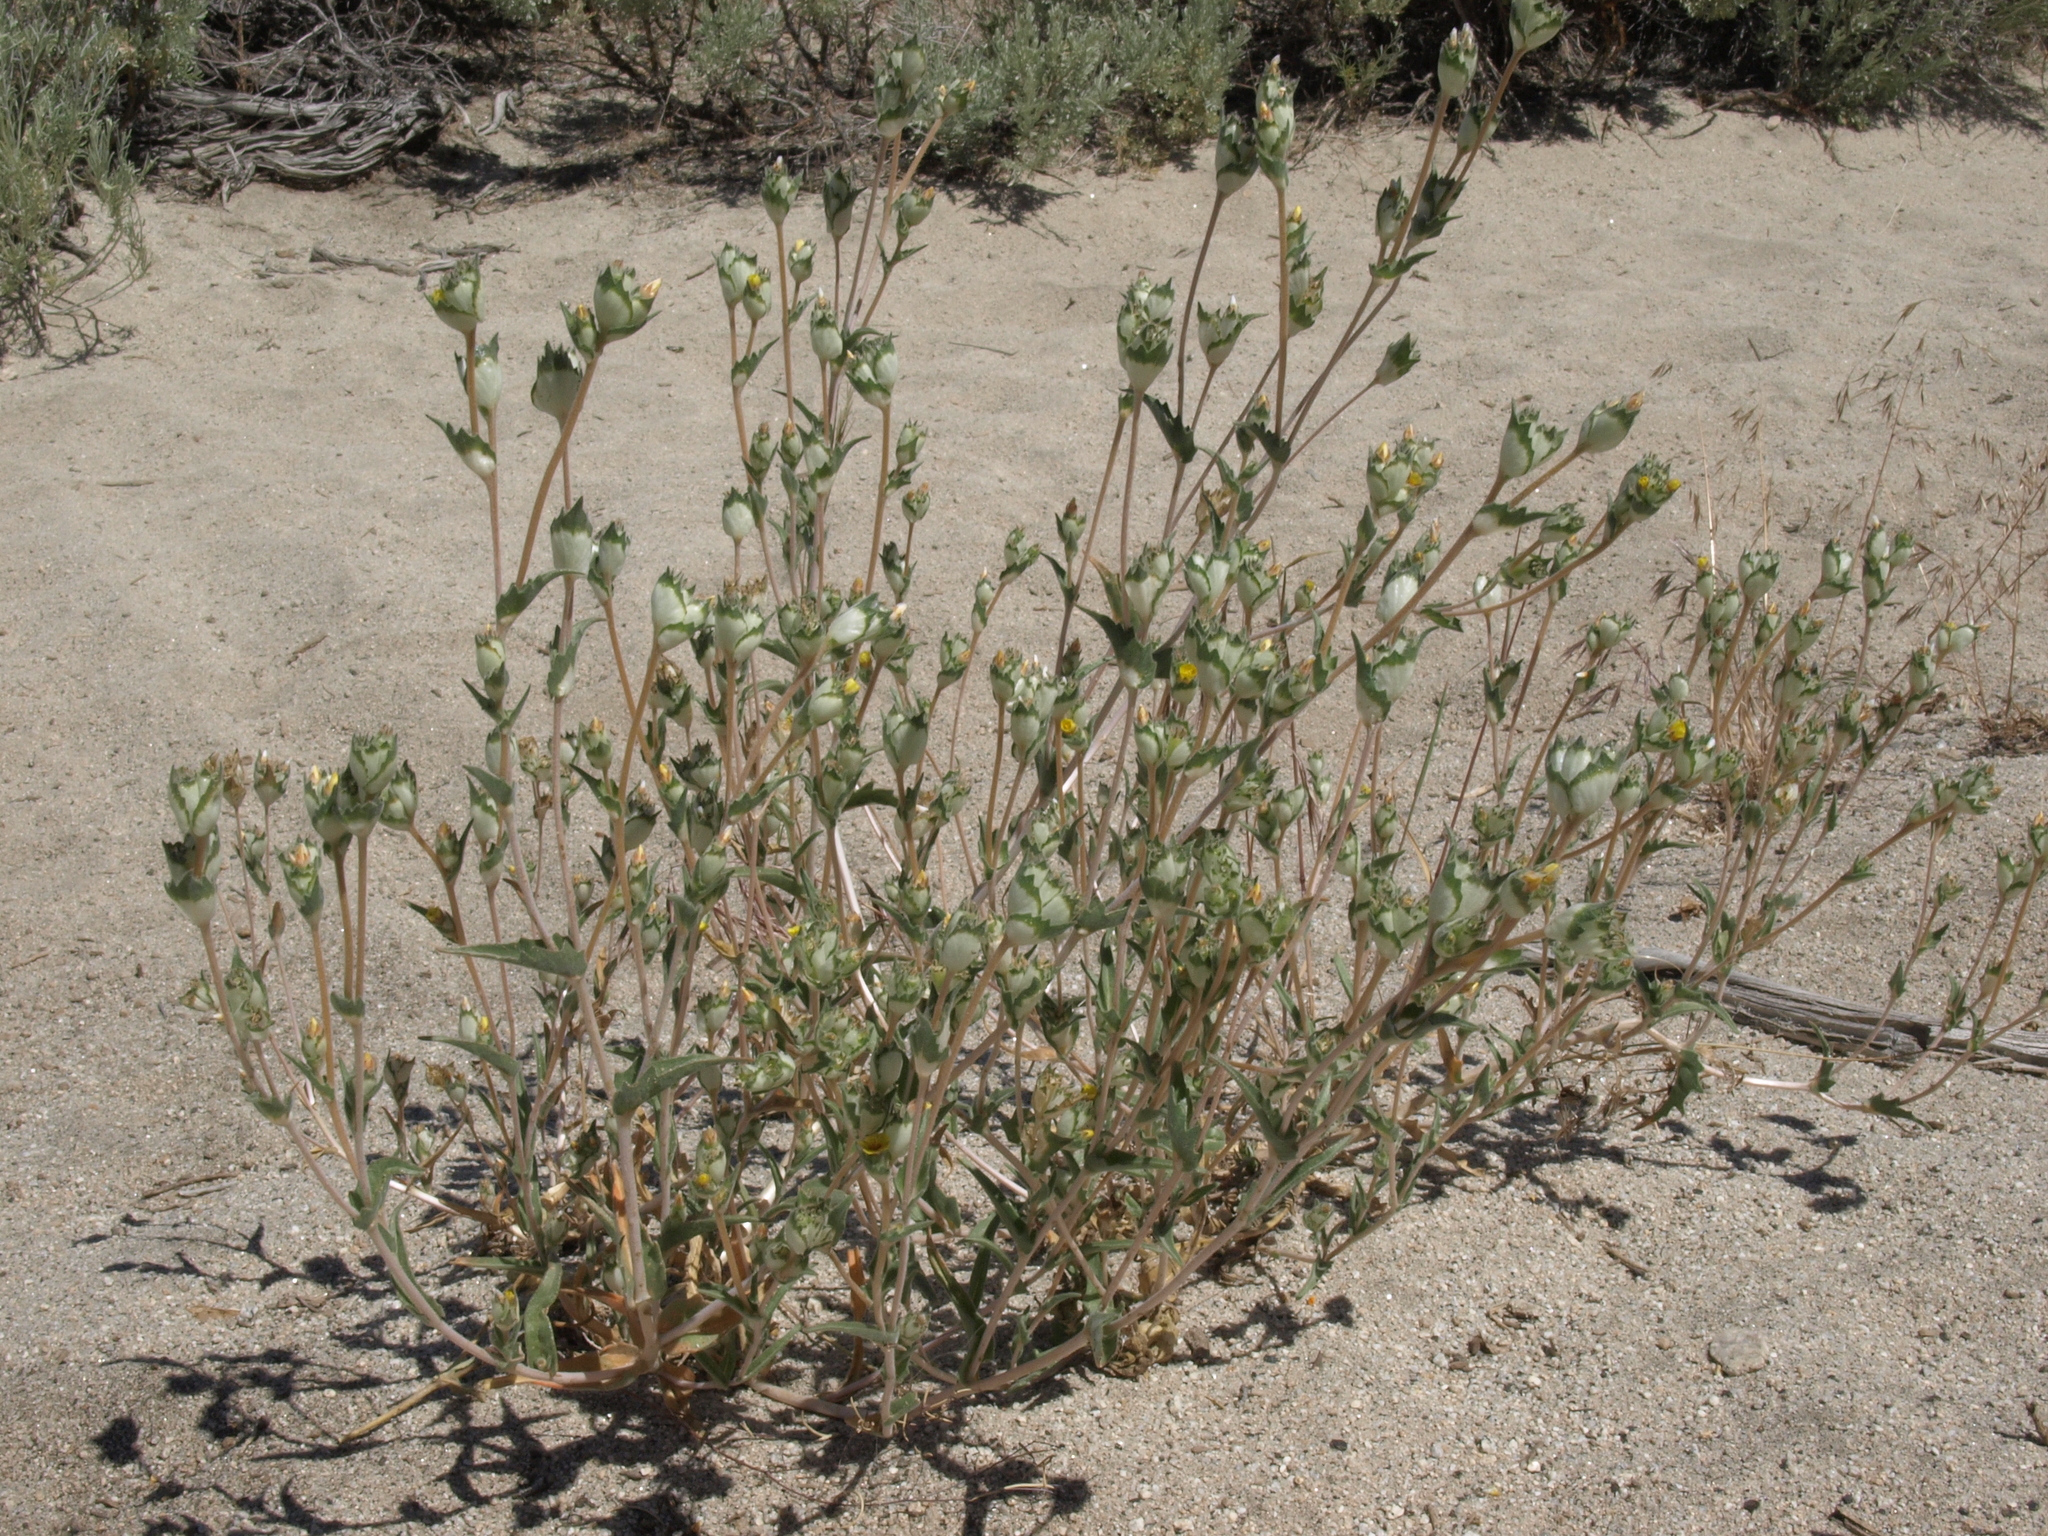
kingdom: Plantae
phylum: Tracheophyta
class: Magnoliopsida
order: Cornales
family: Loasaceae
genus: Mentzelia
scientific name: Mentzelia congesta
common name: Ventana blazingstar
